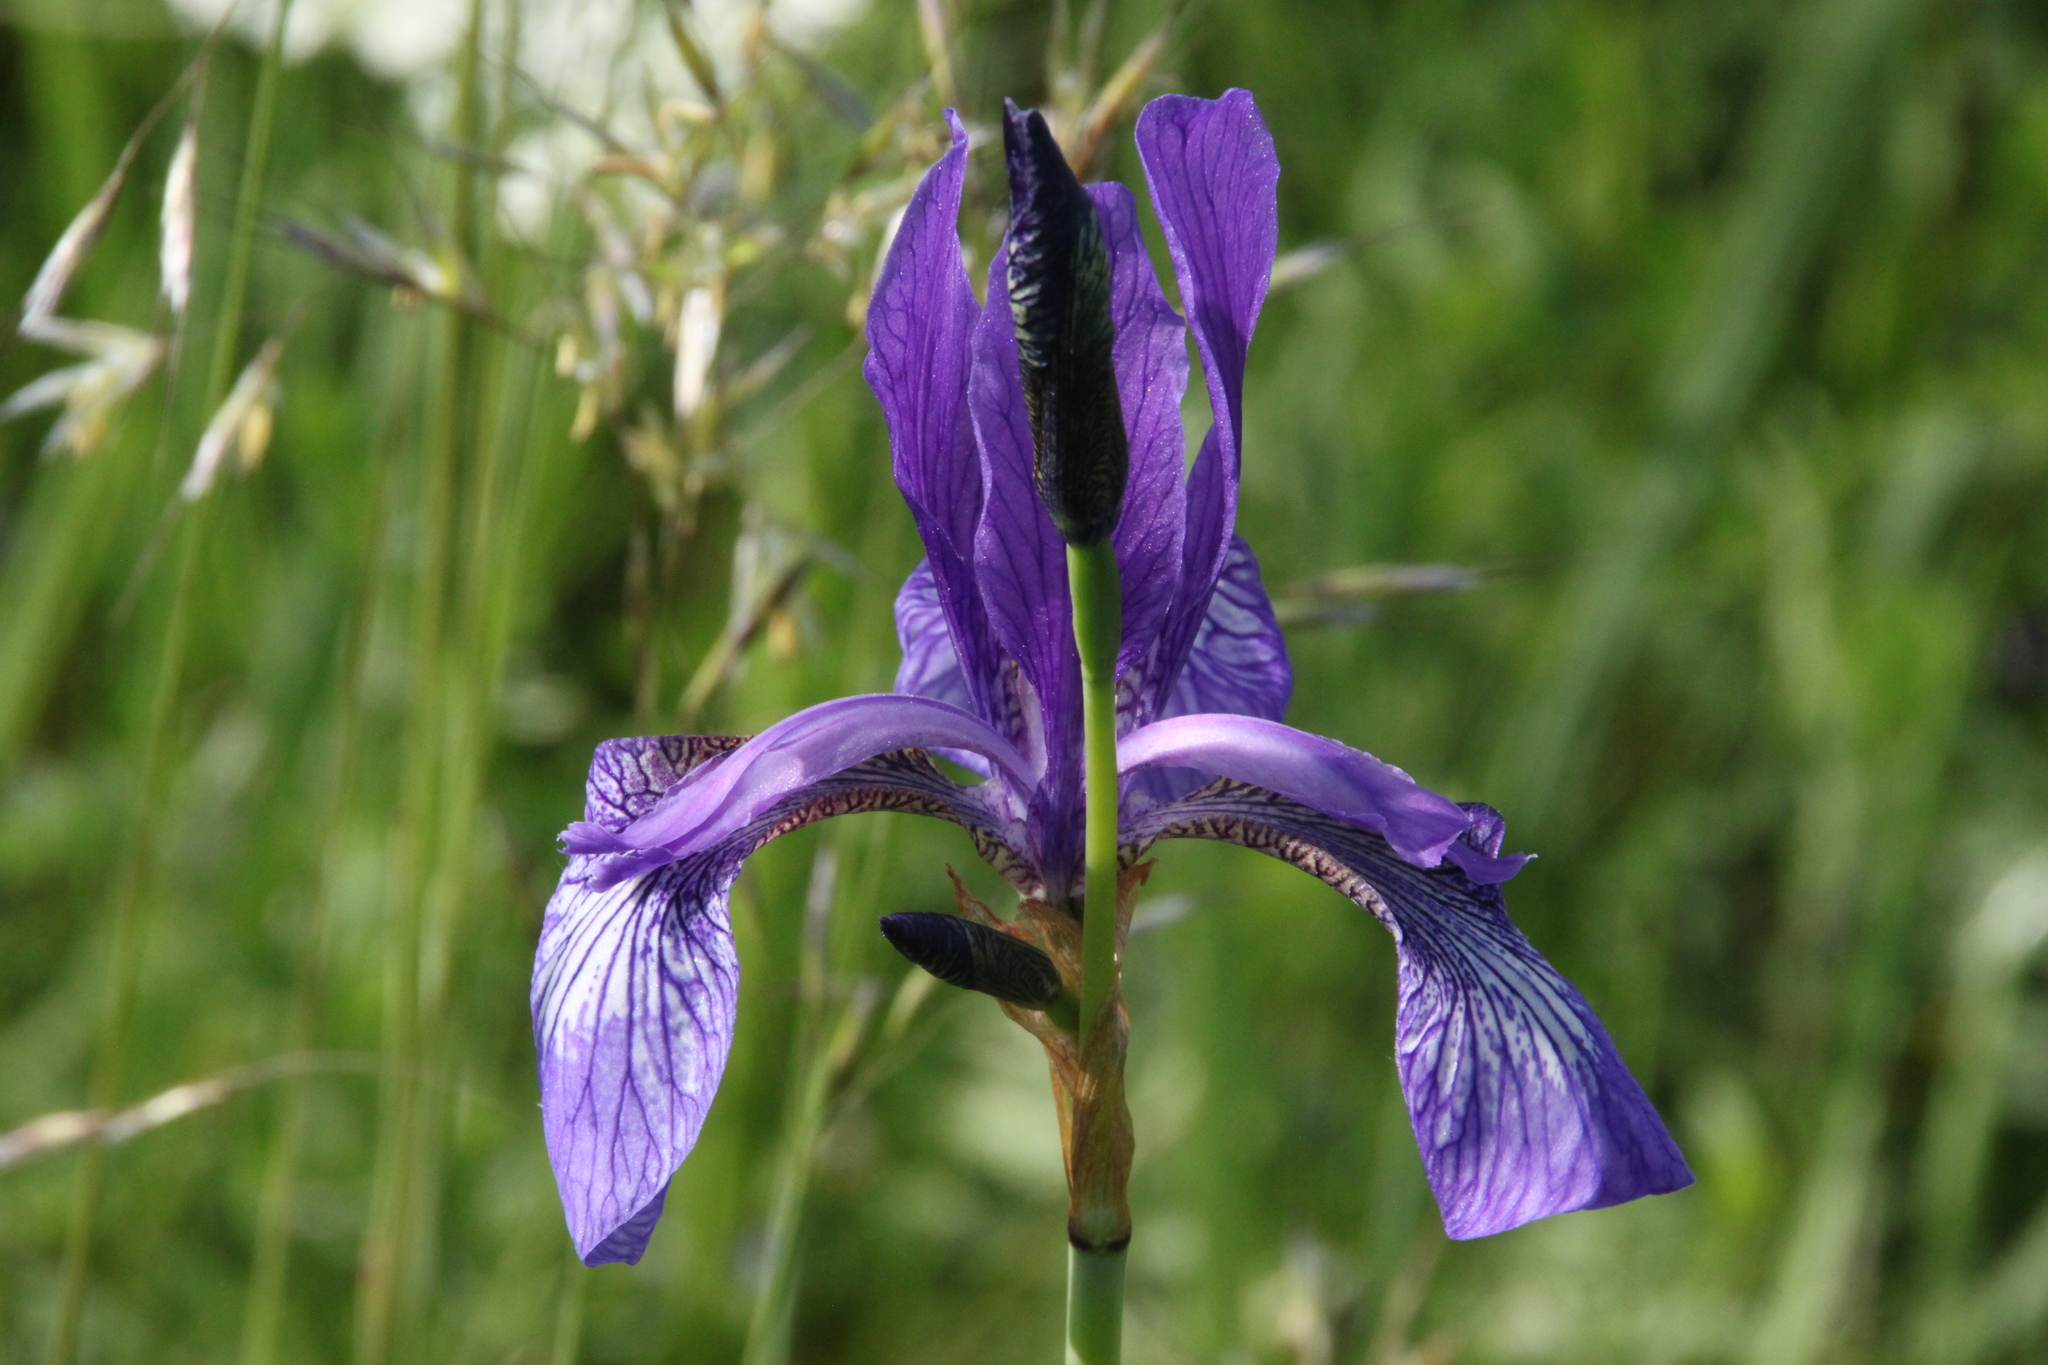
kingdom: Plantae
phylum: Tracheophyta
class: Liliopsida
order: Asparagales
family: Iridaceae
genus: Iris
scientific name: Iris sibirica
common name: Siberian iris
